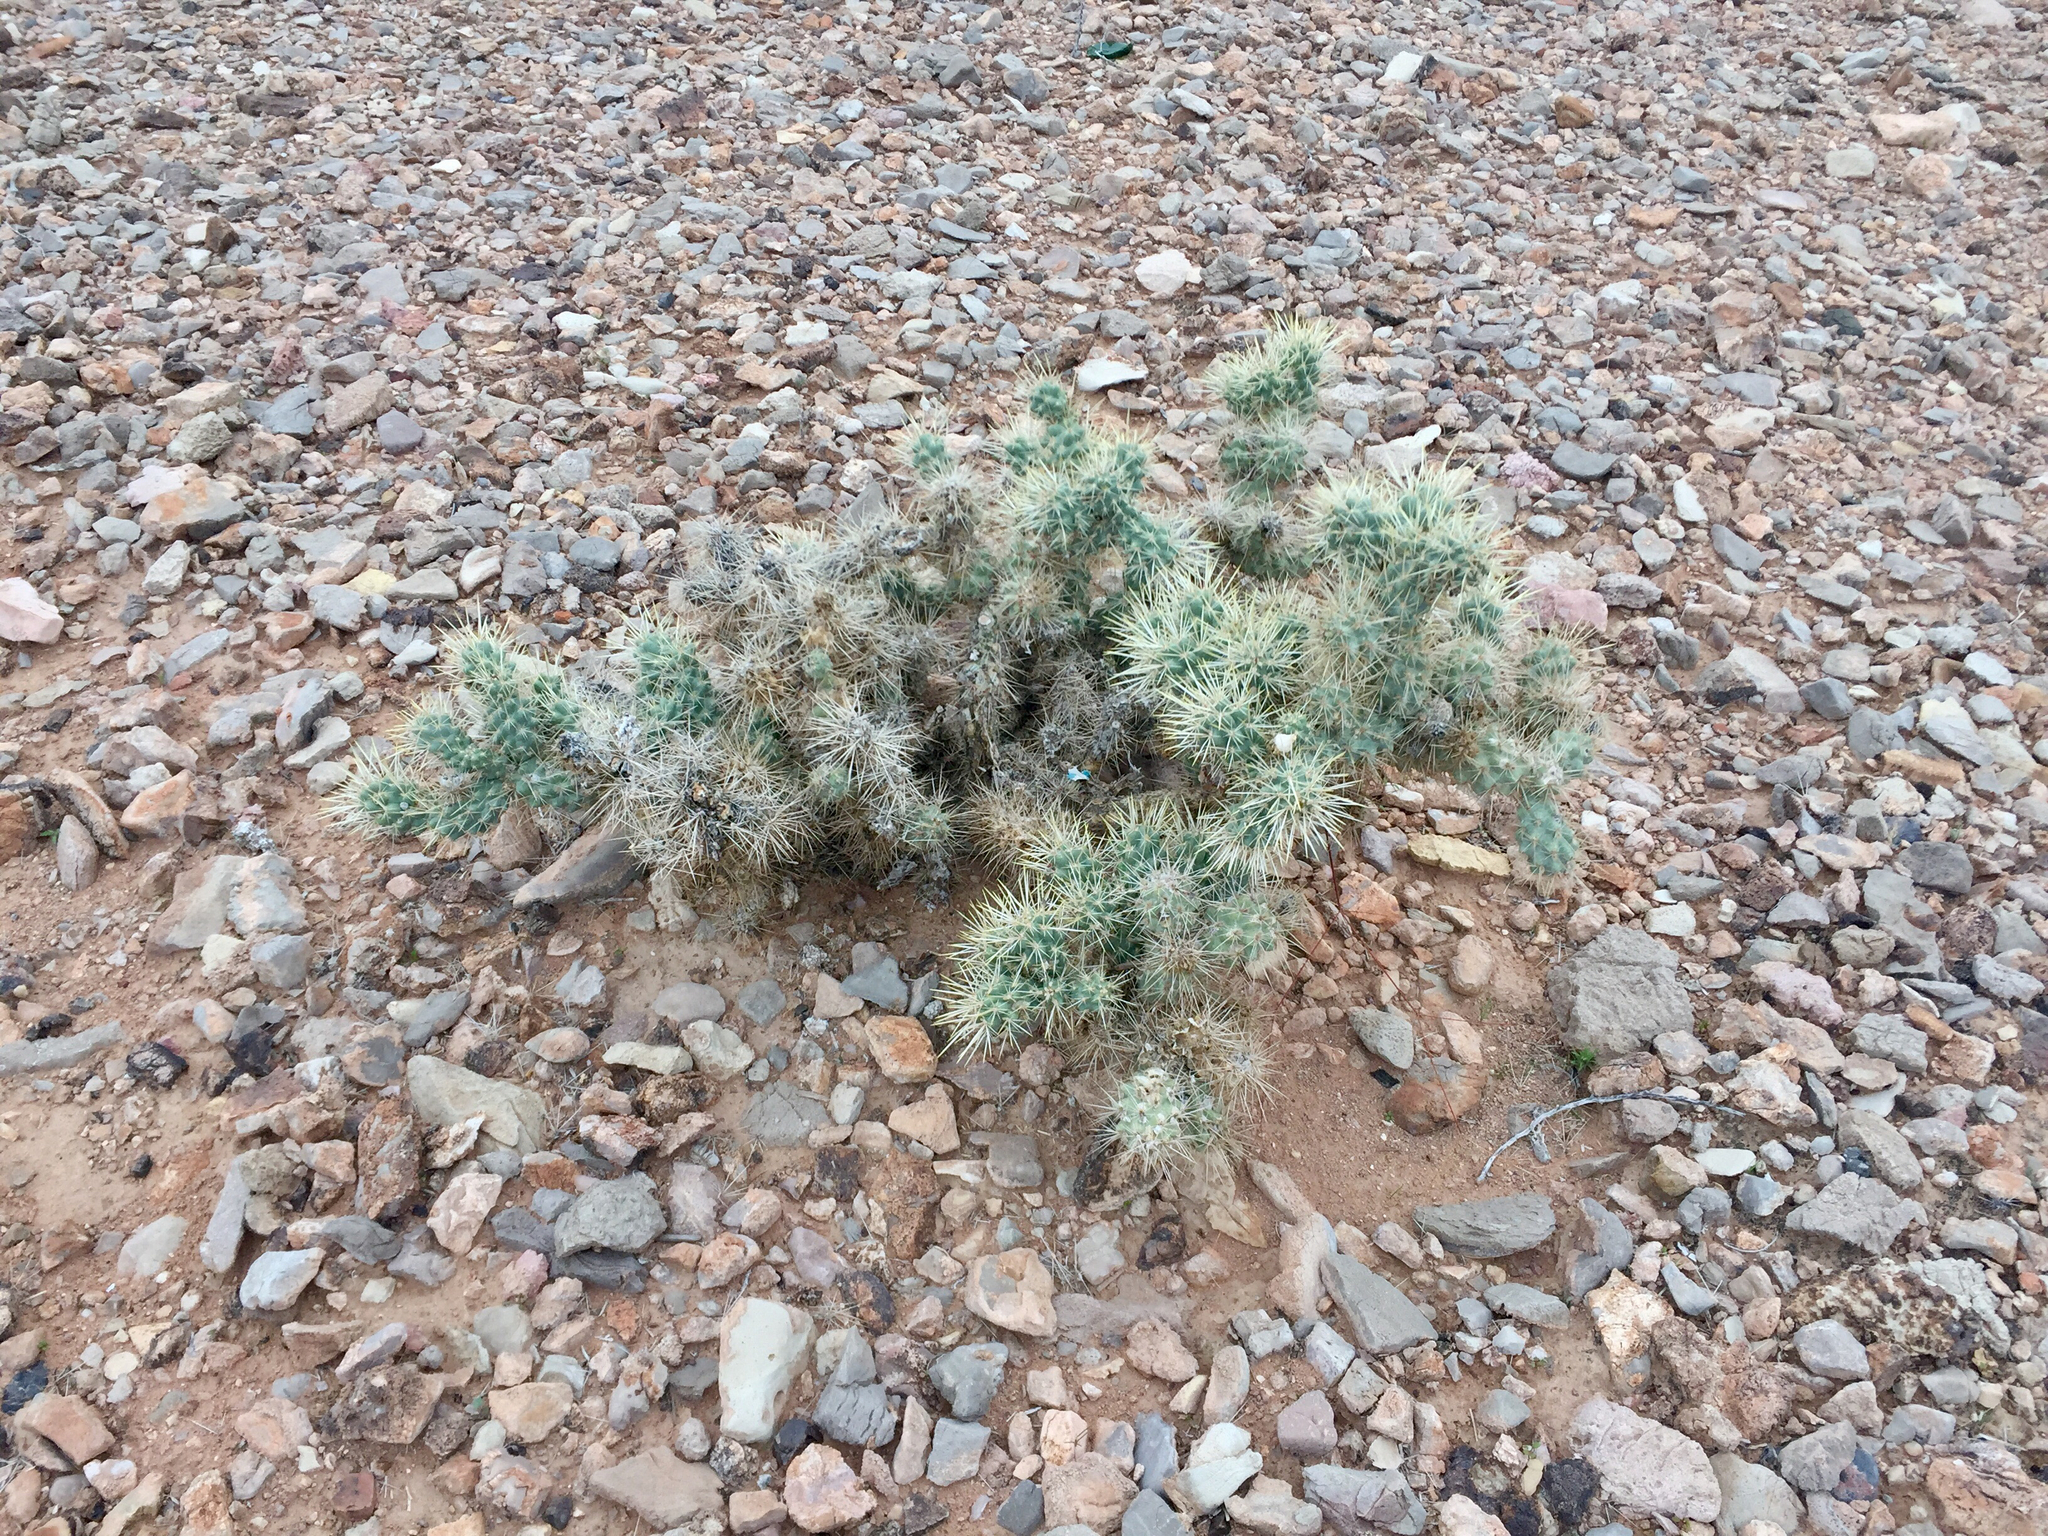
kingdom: Plantae
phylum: Tracheophyta
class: Magnoliopsida
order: Caryophyllales
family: Cactaceae
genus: Cylindropuntia
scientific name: Cylindropuntia echinocarpa
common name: Ground cholla
